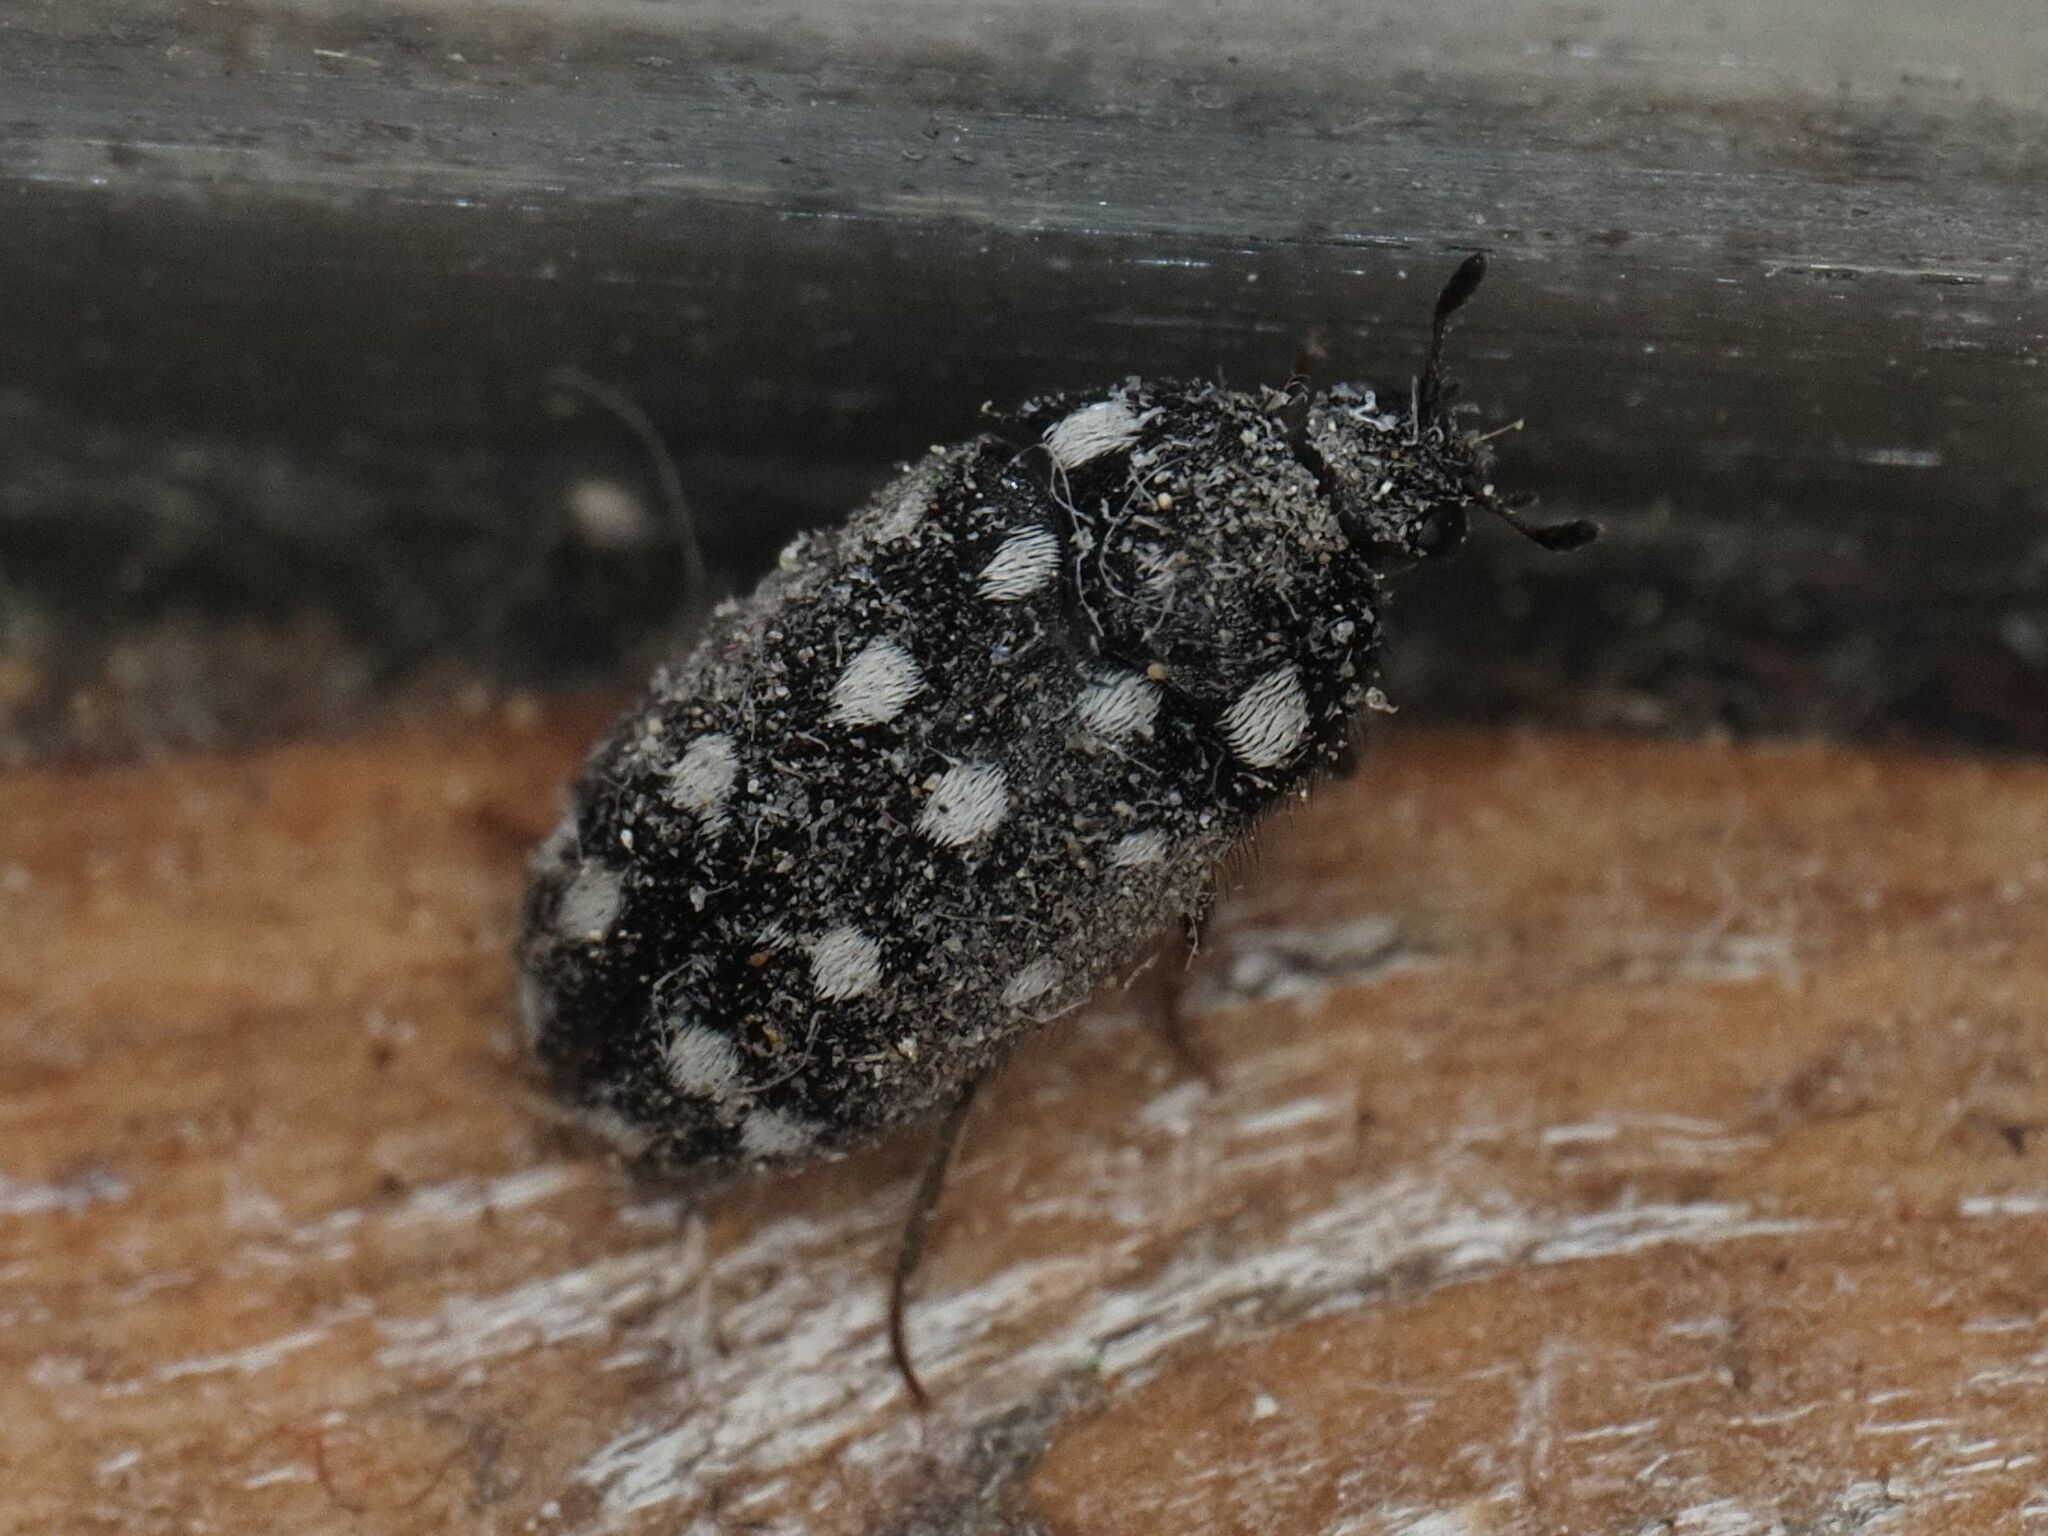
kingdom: Animalia
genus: Paranovelsis
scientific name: Paranovelsis
